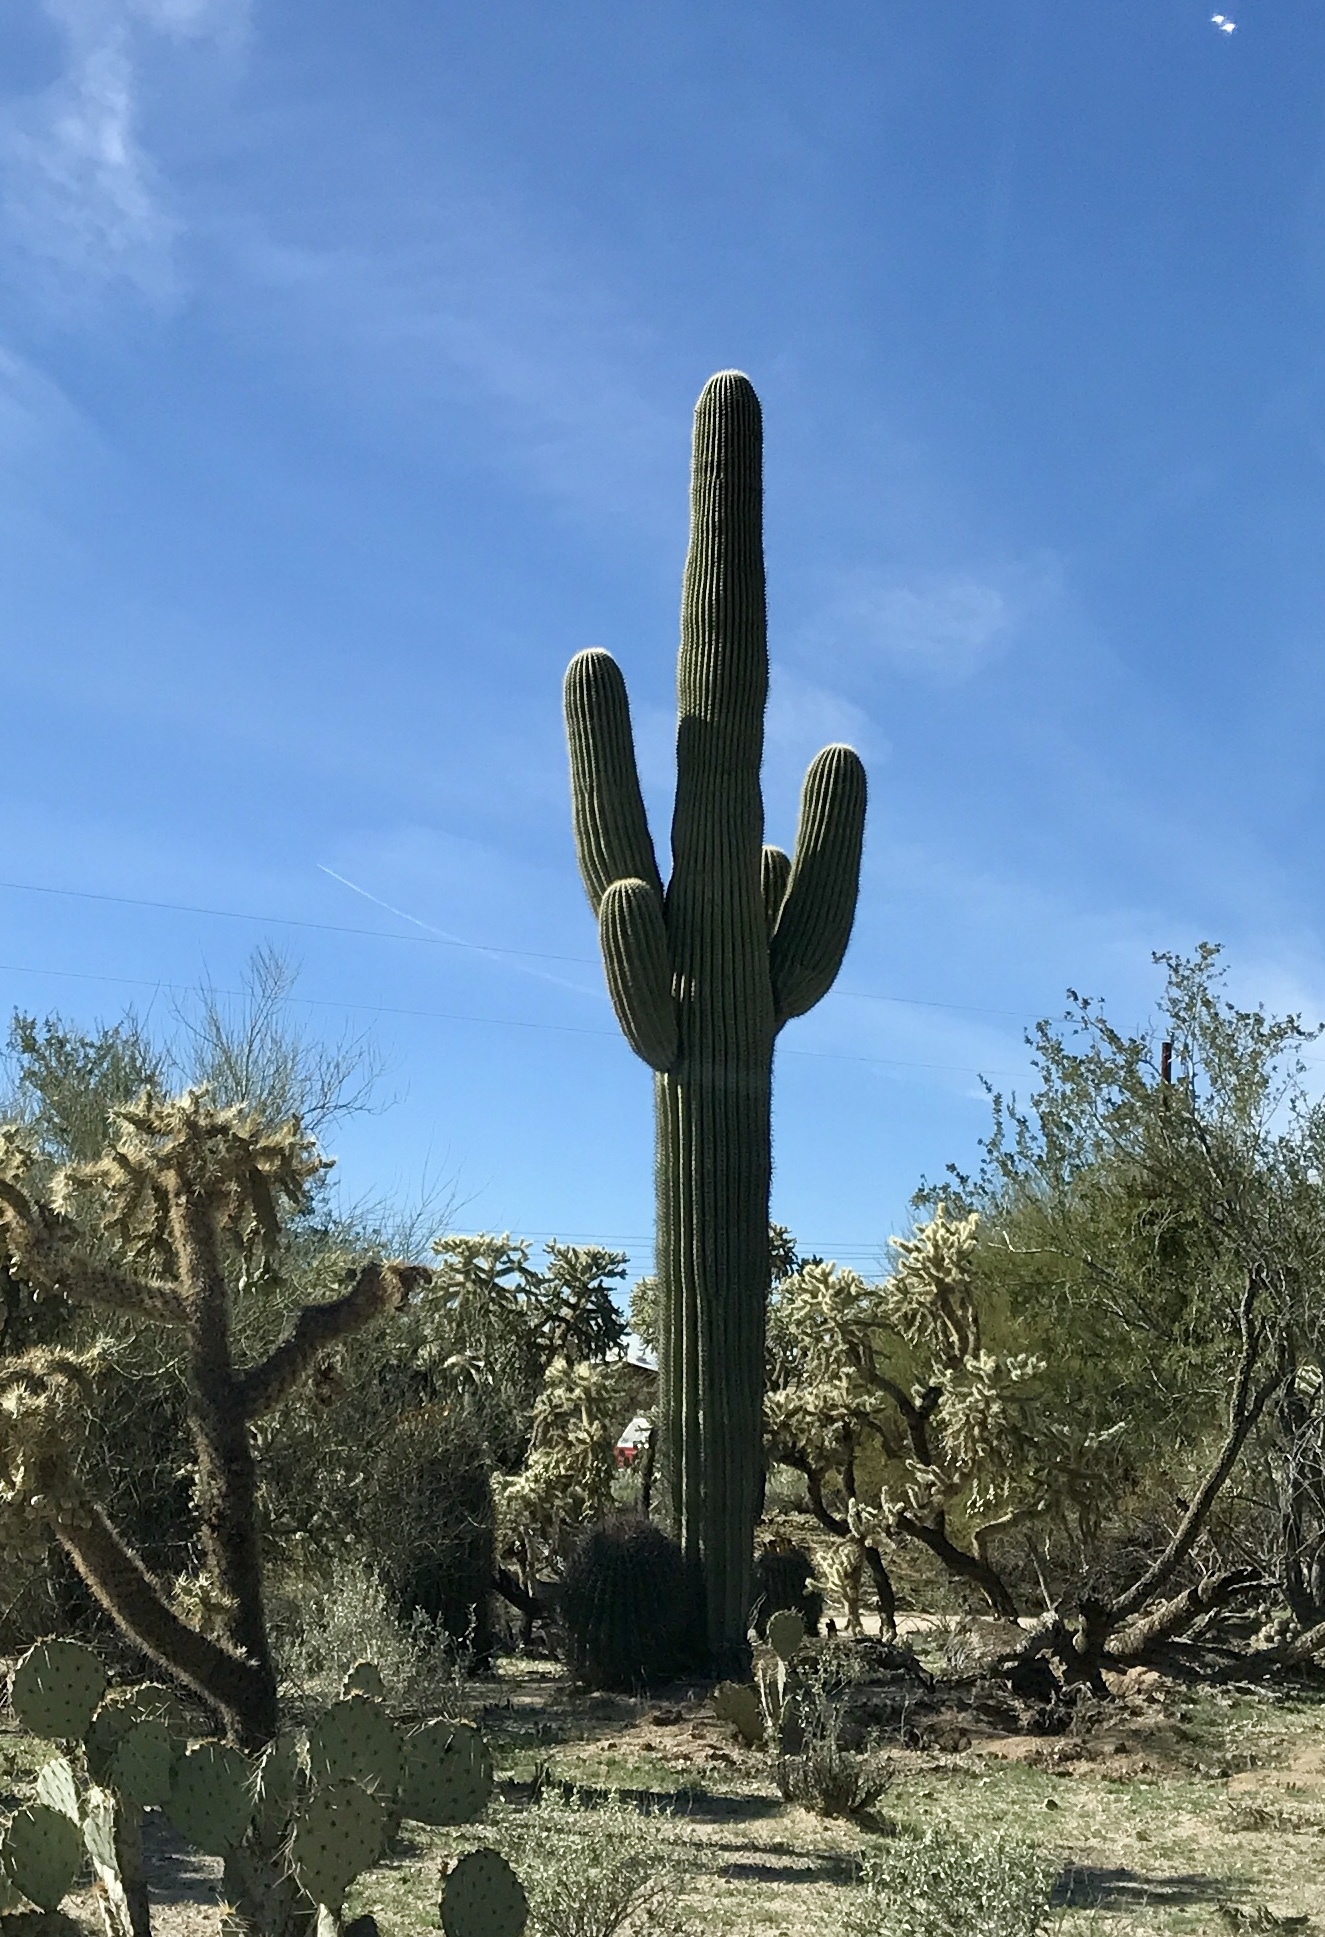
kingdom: Plantae
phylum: Tracheophyta
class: Magnoliopsida
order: Caryophyllales
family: Cactaceae
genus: Carnegiea
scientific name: Carnegiea gigantea
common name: Saguaro
